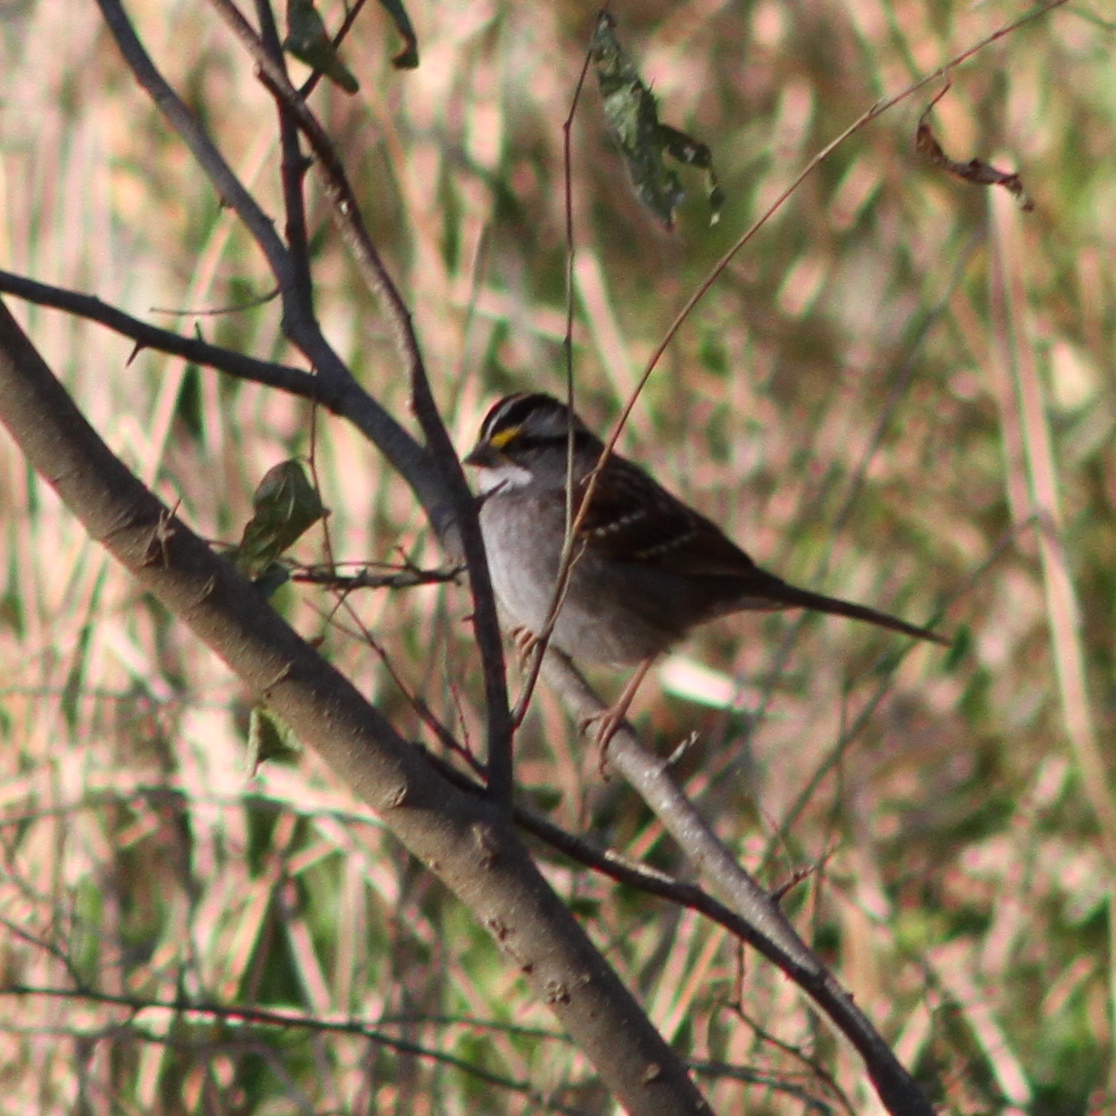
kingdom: Animalia
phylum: Chordata
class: Aves
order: Passeriformes
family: Passerellidae
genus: Zonotrichia
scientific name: Zonotrichia albicollis
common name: White-throated sparrow
